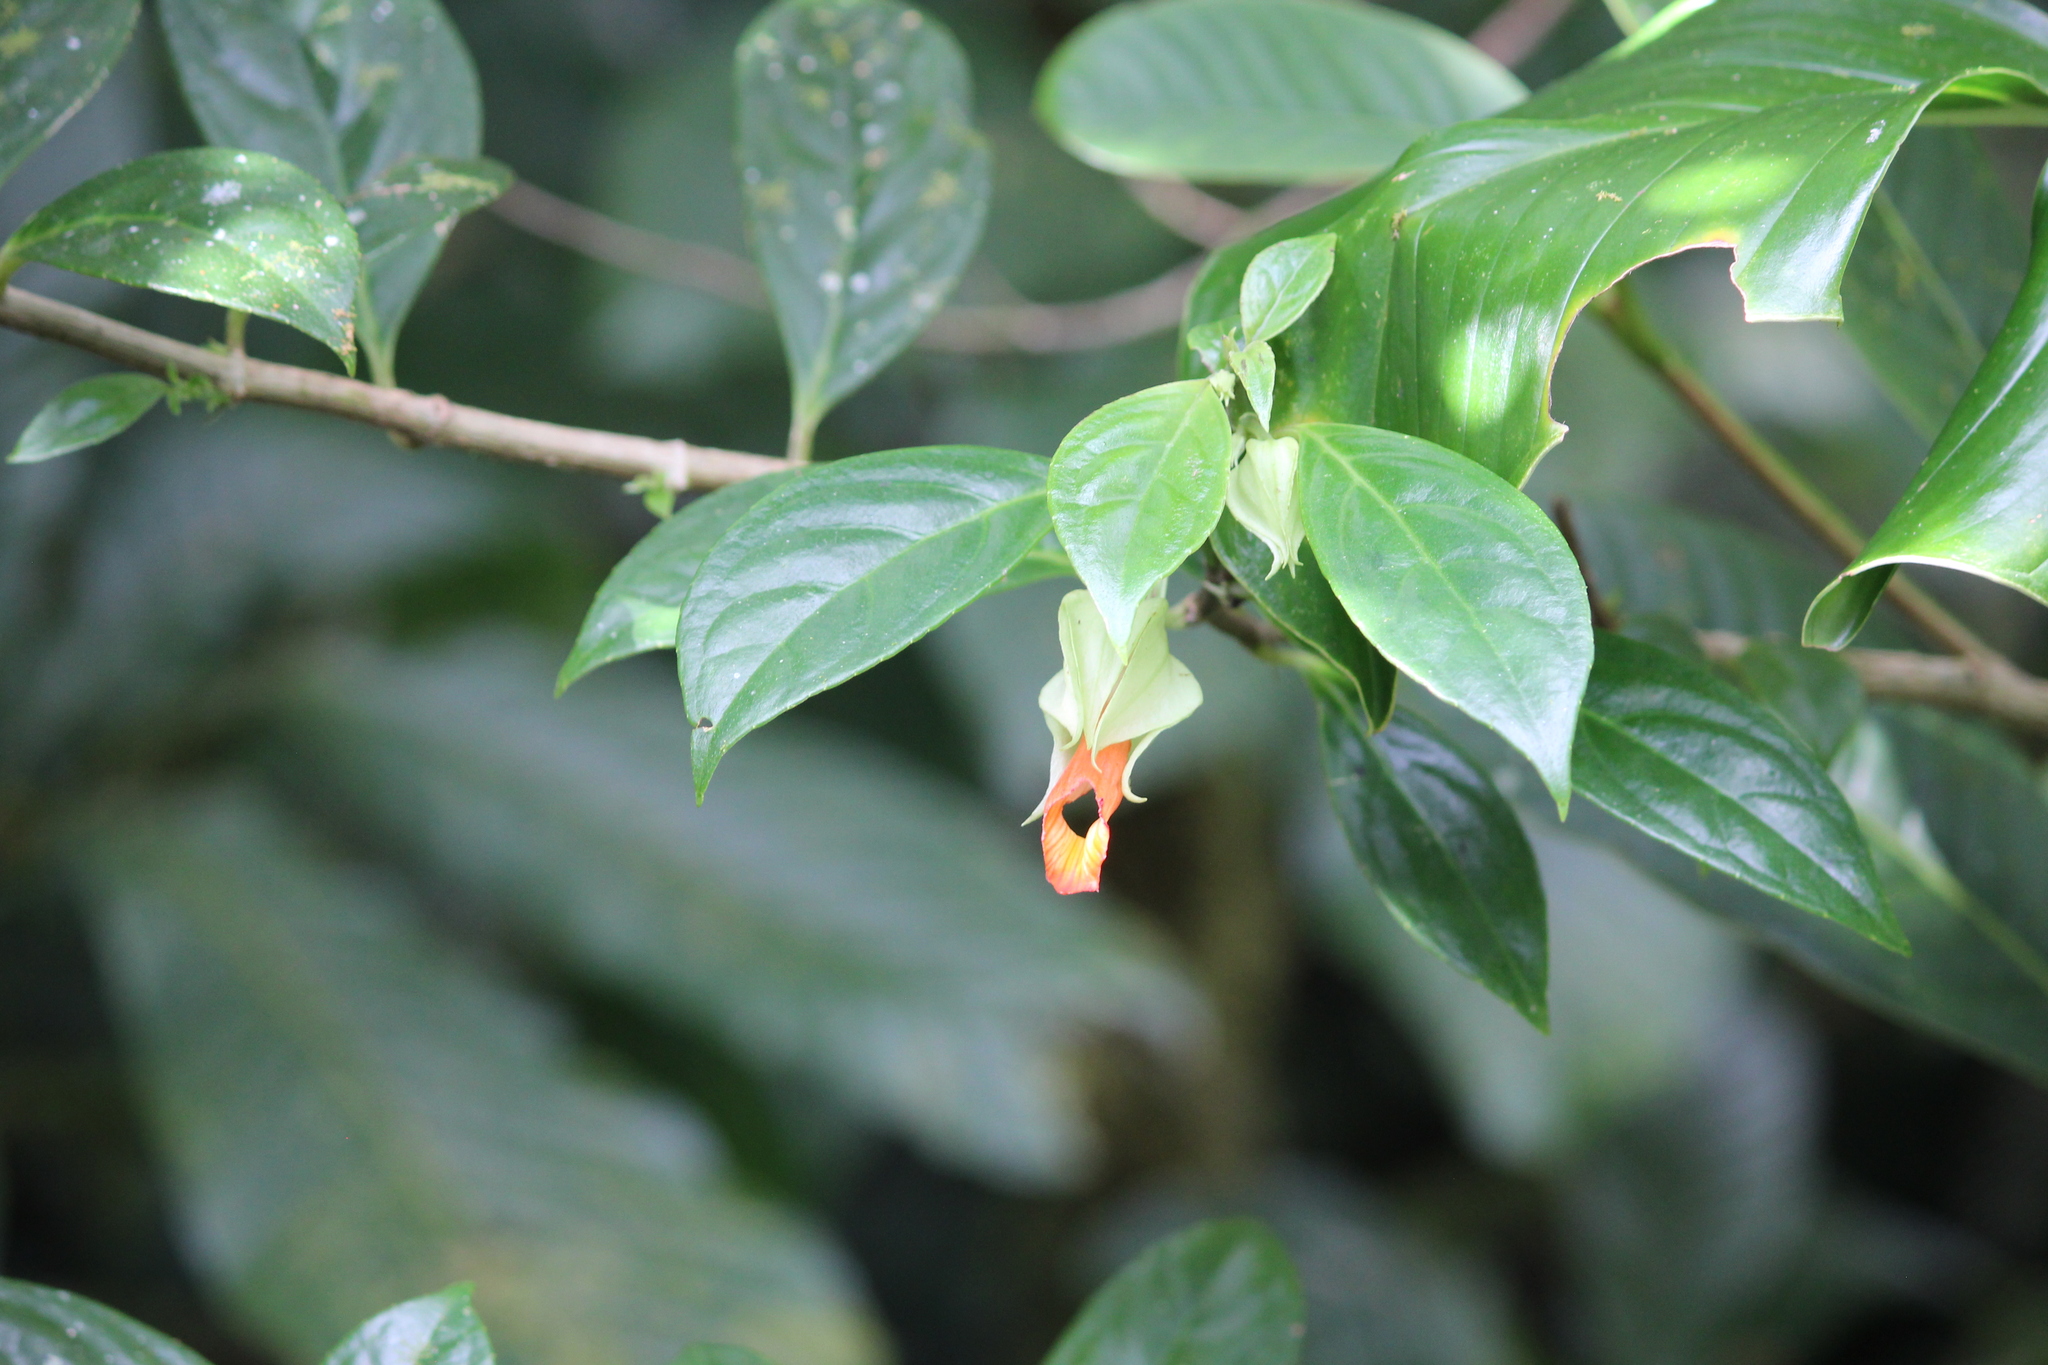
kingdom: Plantae
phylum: Tracheophyta
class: Magnoliopsida
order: Lamiales
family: Gesneriaceae
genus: Drymonia
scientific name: Drymonia rubra
